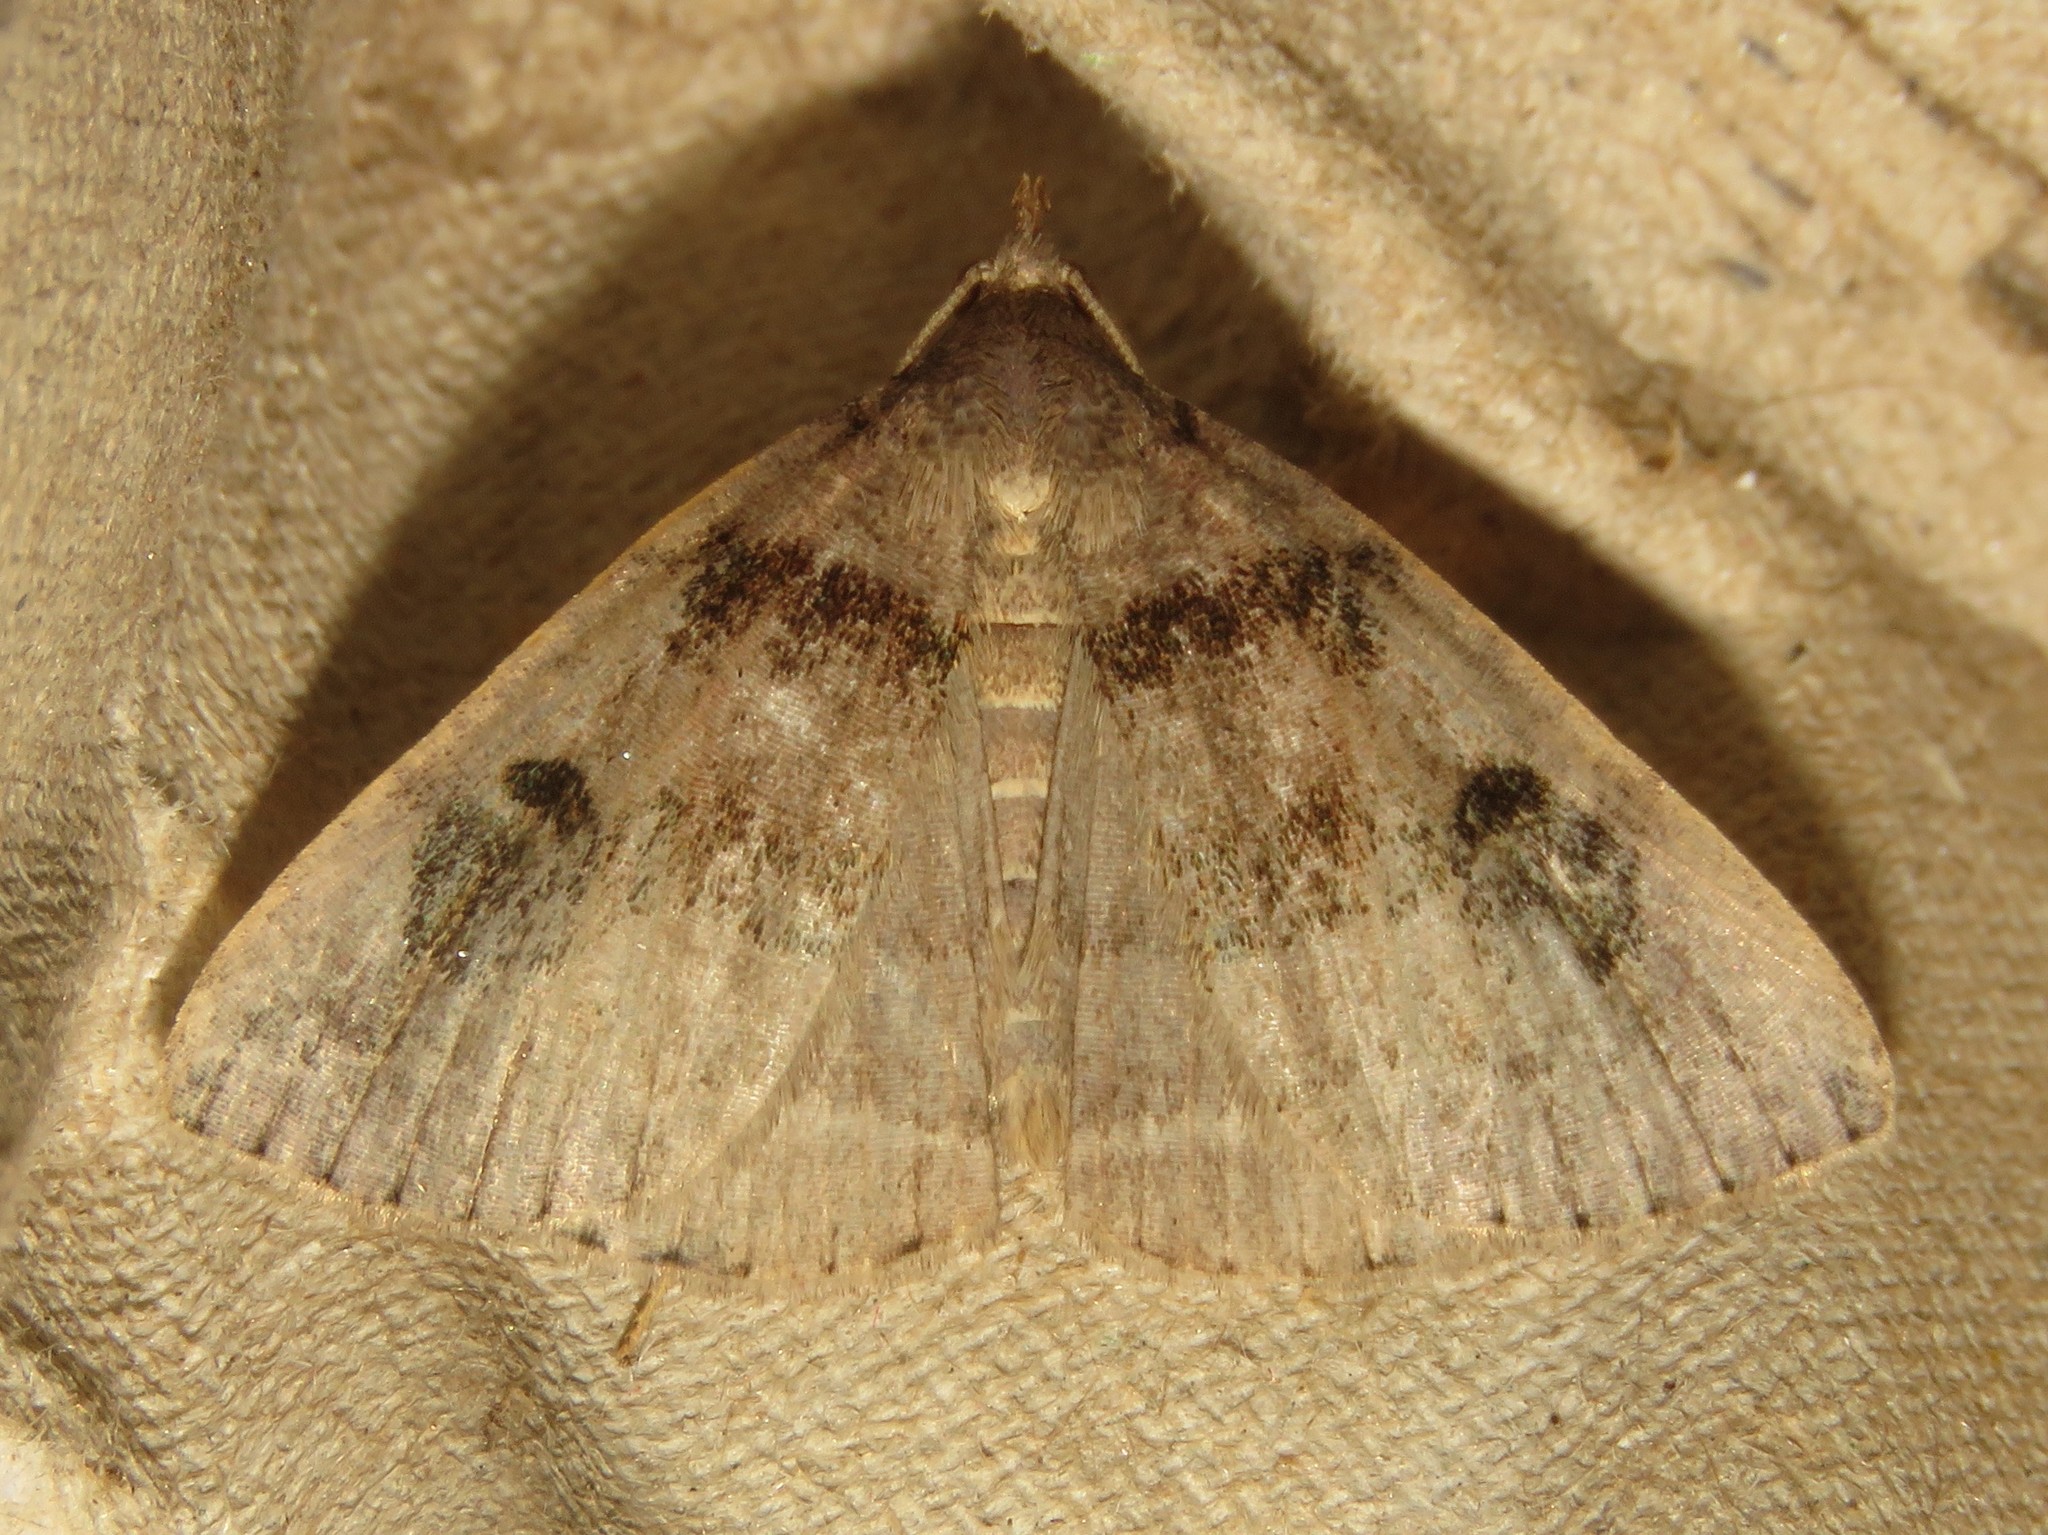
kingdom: Animalia
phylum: Arthropoda
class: Insecta
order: Lepidoptera
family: Erebidae
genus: Zanclognatha
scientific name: Zanclognatha laevigata
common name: Variable fan-foot
